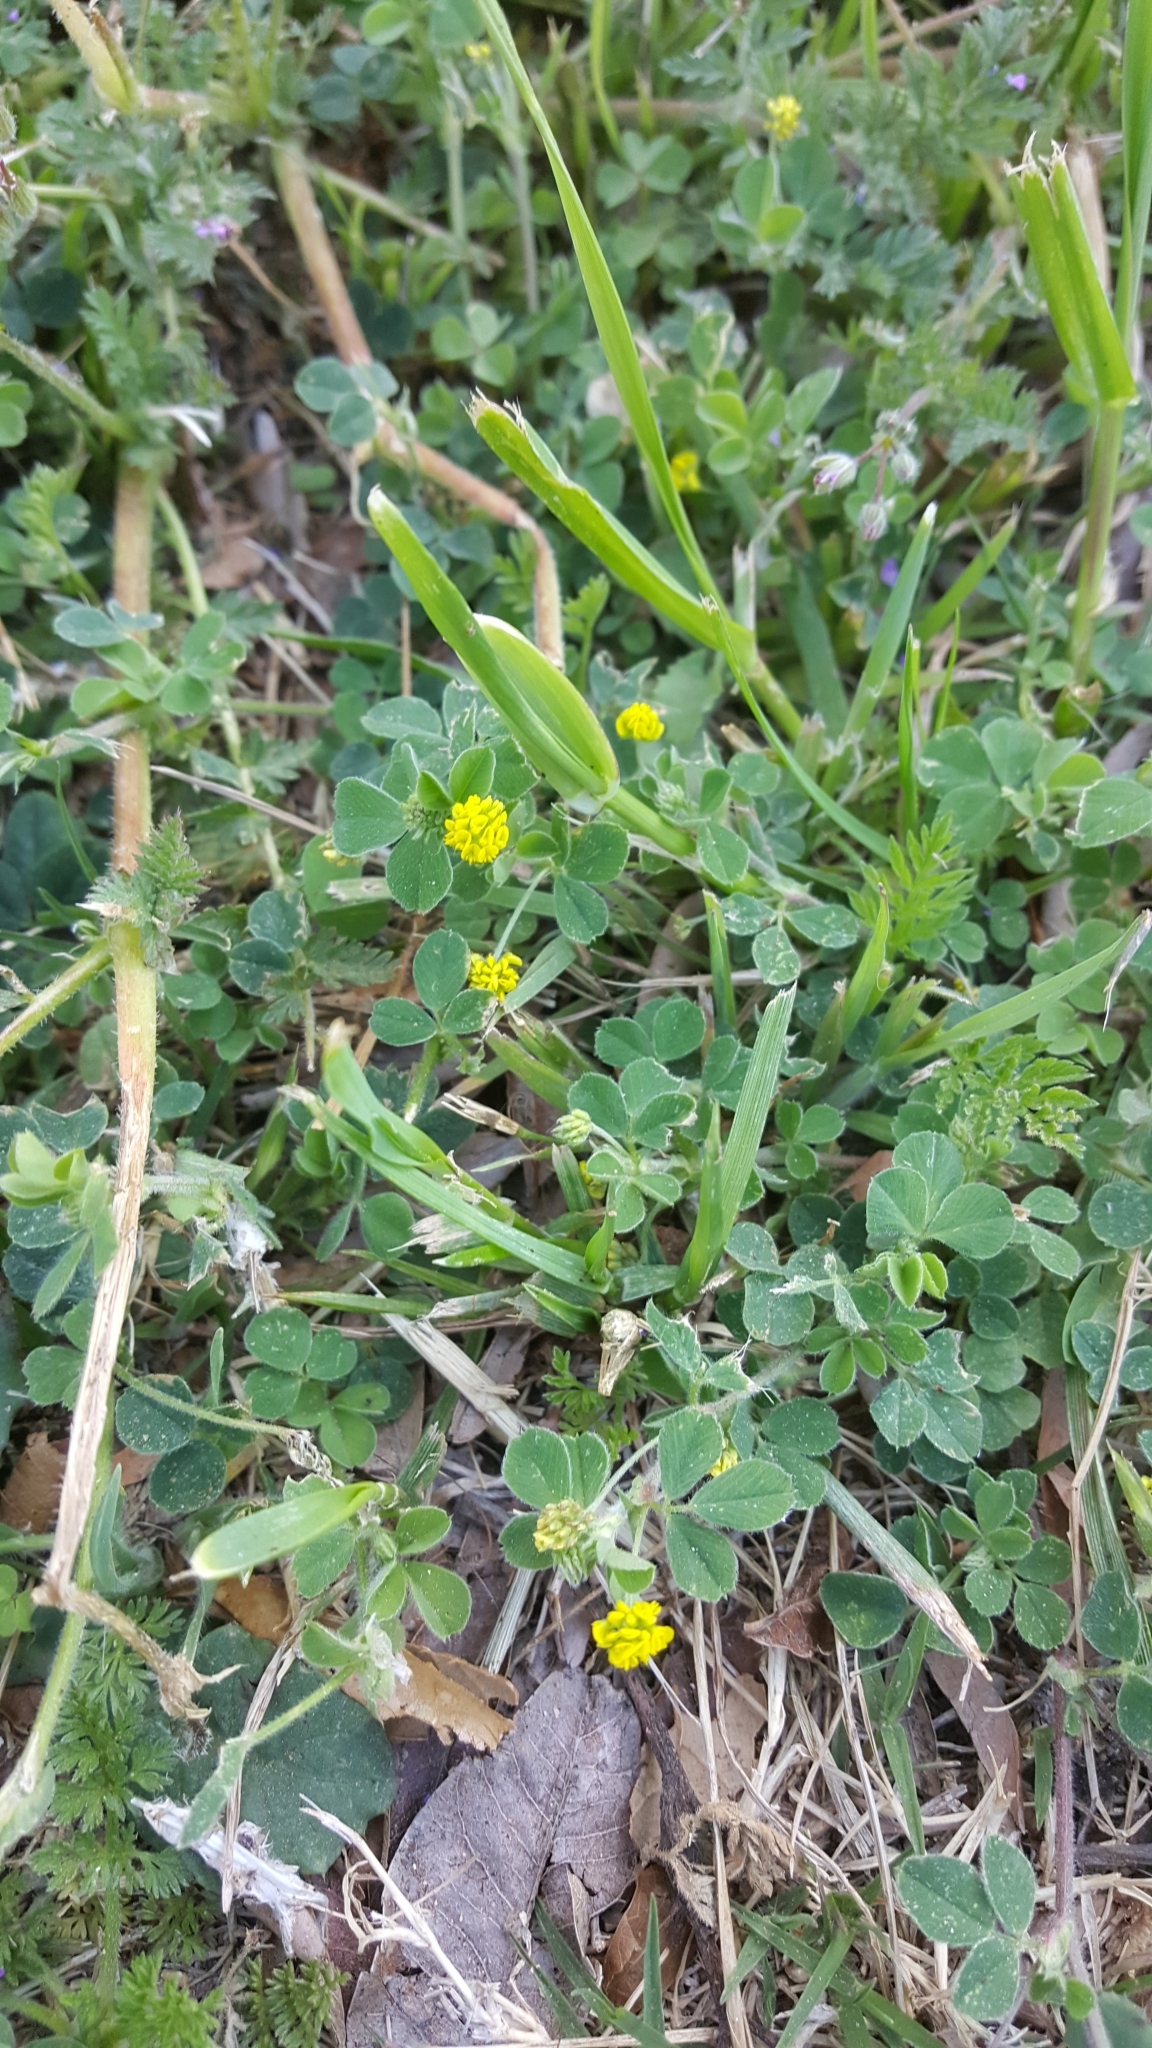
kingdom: Plantae
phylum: Tracheophyta
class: Magnoliopsida
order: Fabales
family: Fabaceae
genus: Medicago
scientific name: Medicago lupulina
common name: Black medick
